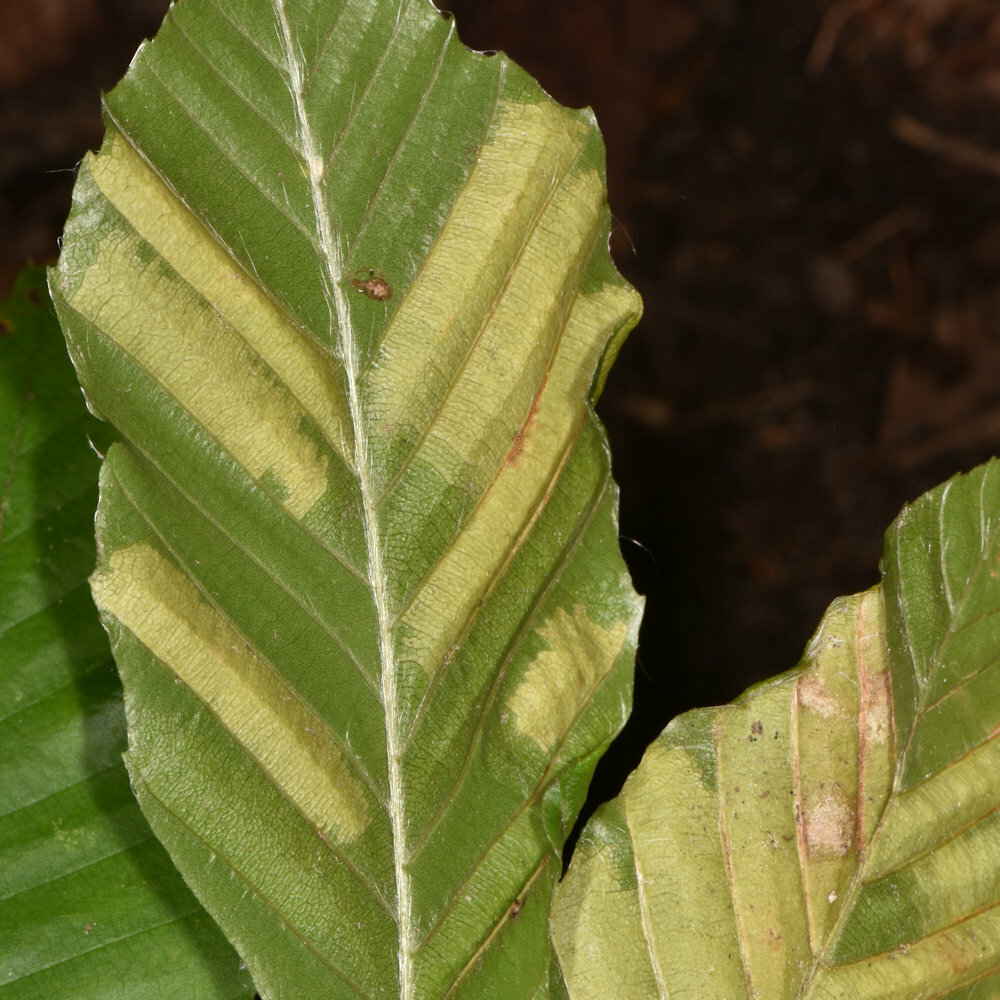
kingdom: Animalia
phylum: Nematoda
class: Chromadorea
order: Rhabditida
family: Anguinidae
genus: Litylenchus
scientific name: Litylenchus crenatae
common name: Beech leaf disease
